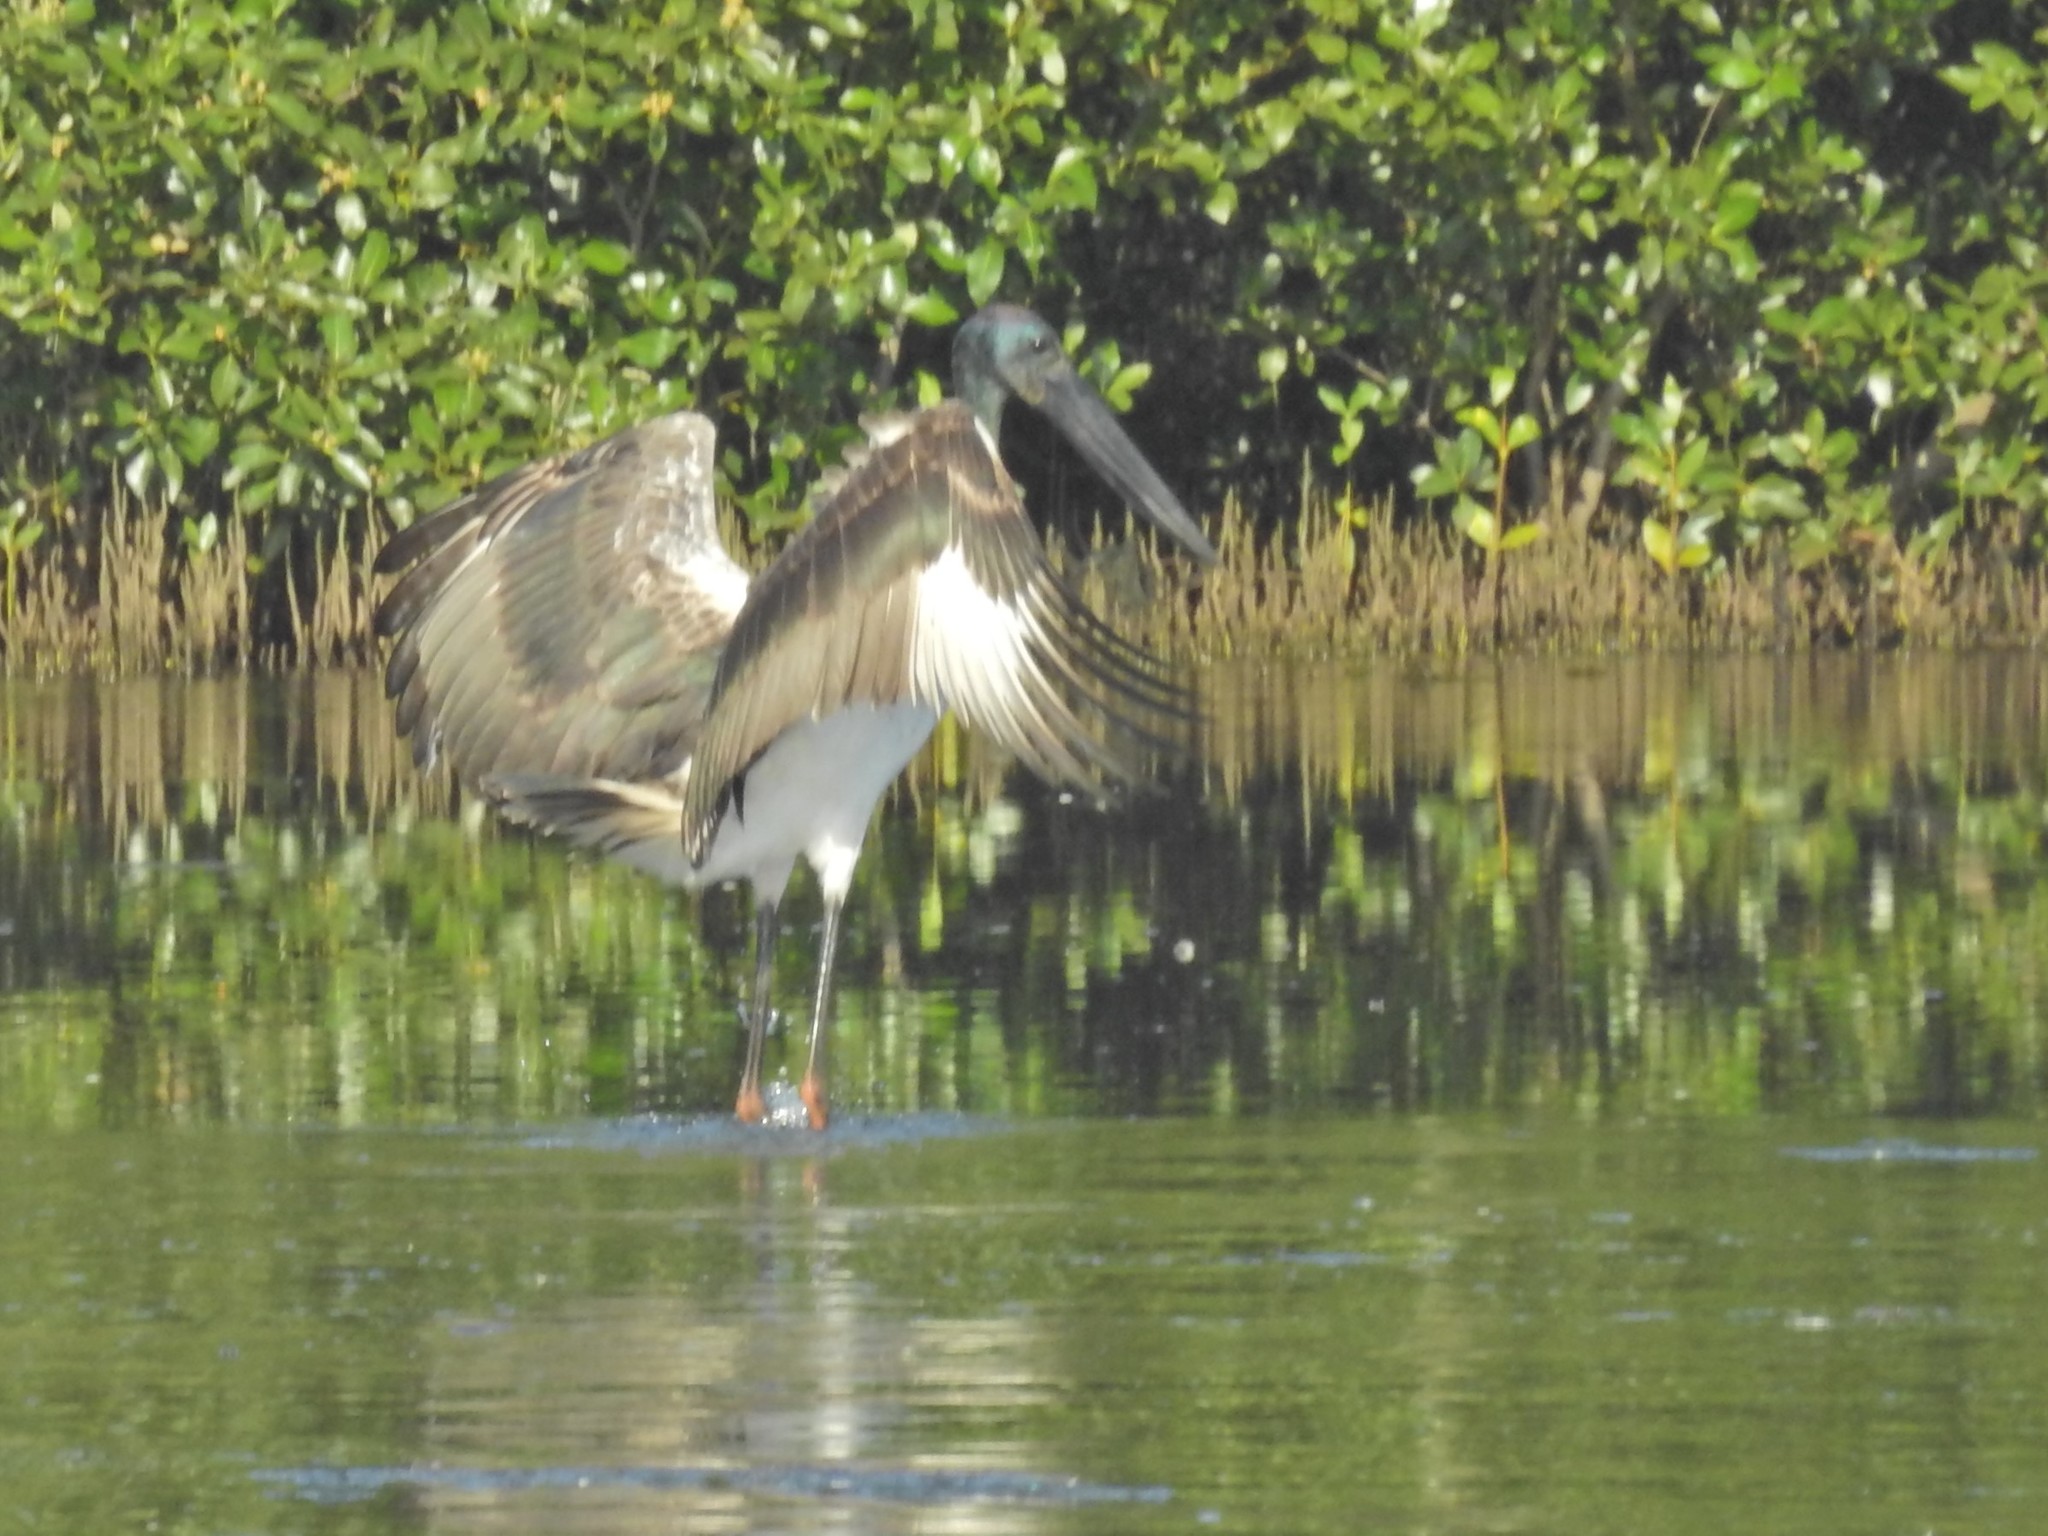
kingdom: Animalia
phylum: Chordata
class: Aves
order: Ciconiiformes
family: Ciconiidae
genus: Ephippiorhynchus
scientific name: Ephippiorhynchus asiaticus
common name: Black-necked stork
